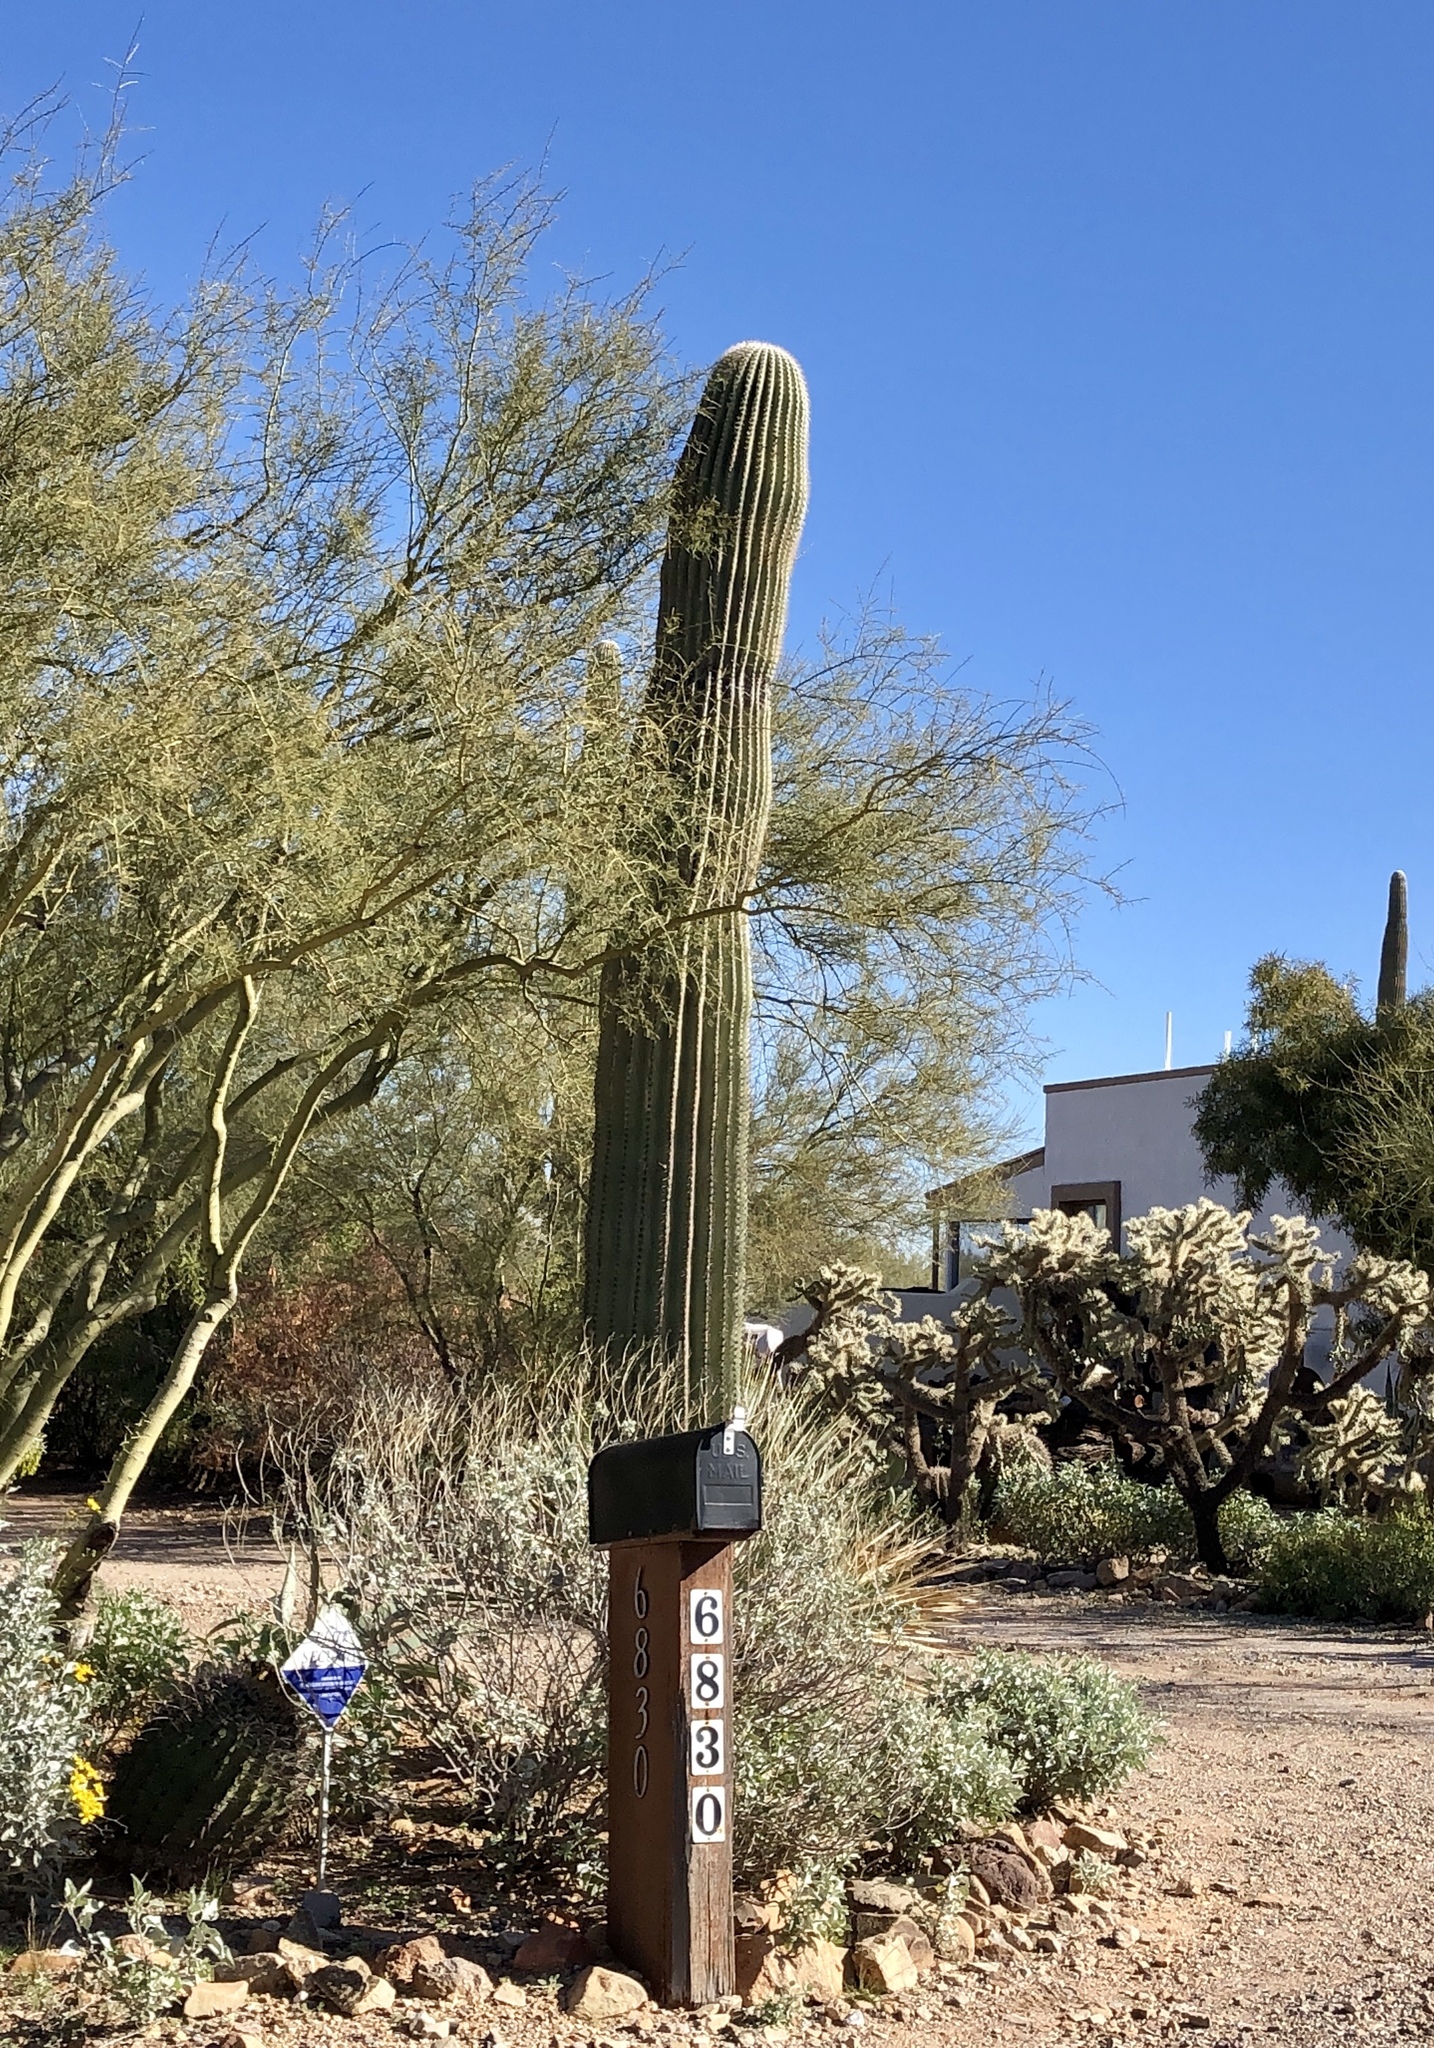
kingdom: Plantae
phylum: Tracheophyta
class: Magnoliopsida
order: Caryophyllales
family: Cactaceae
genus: Carnegiea
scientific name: Carnegiea gigantea
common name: Saguaro
